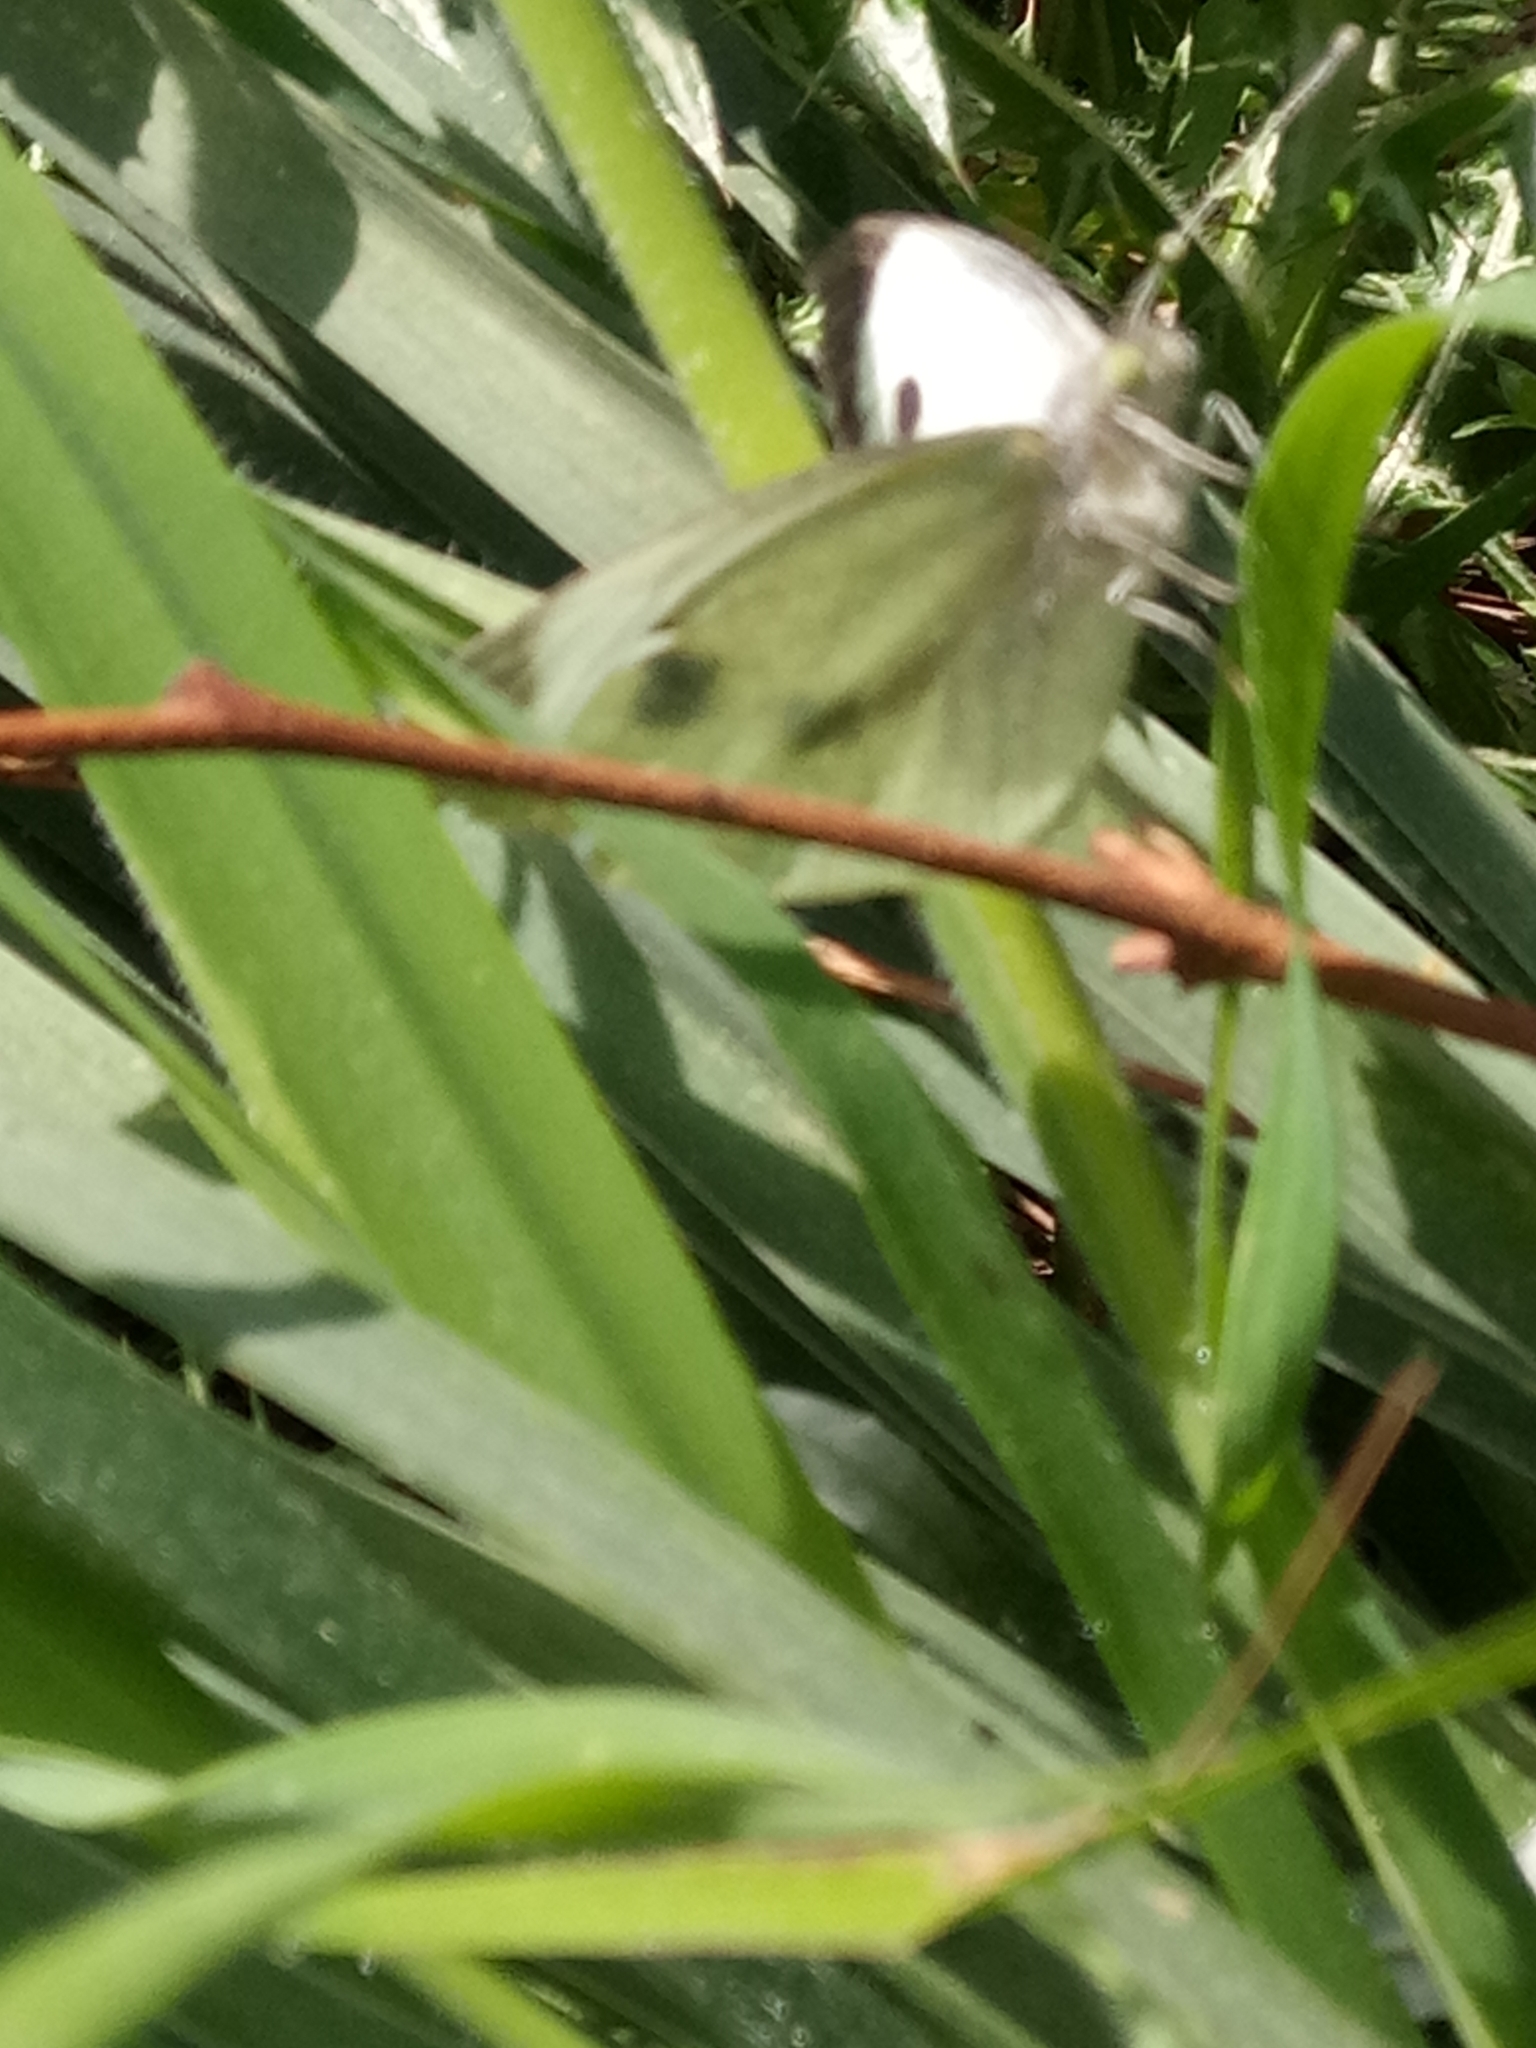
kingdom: Animalia
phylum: Arthropoda
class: Insecta
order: Lepidoptera
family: Pieridae
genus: Pieris
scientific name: Pieris brassicae
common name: Large white
